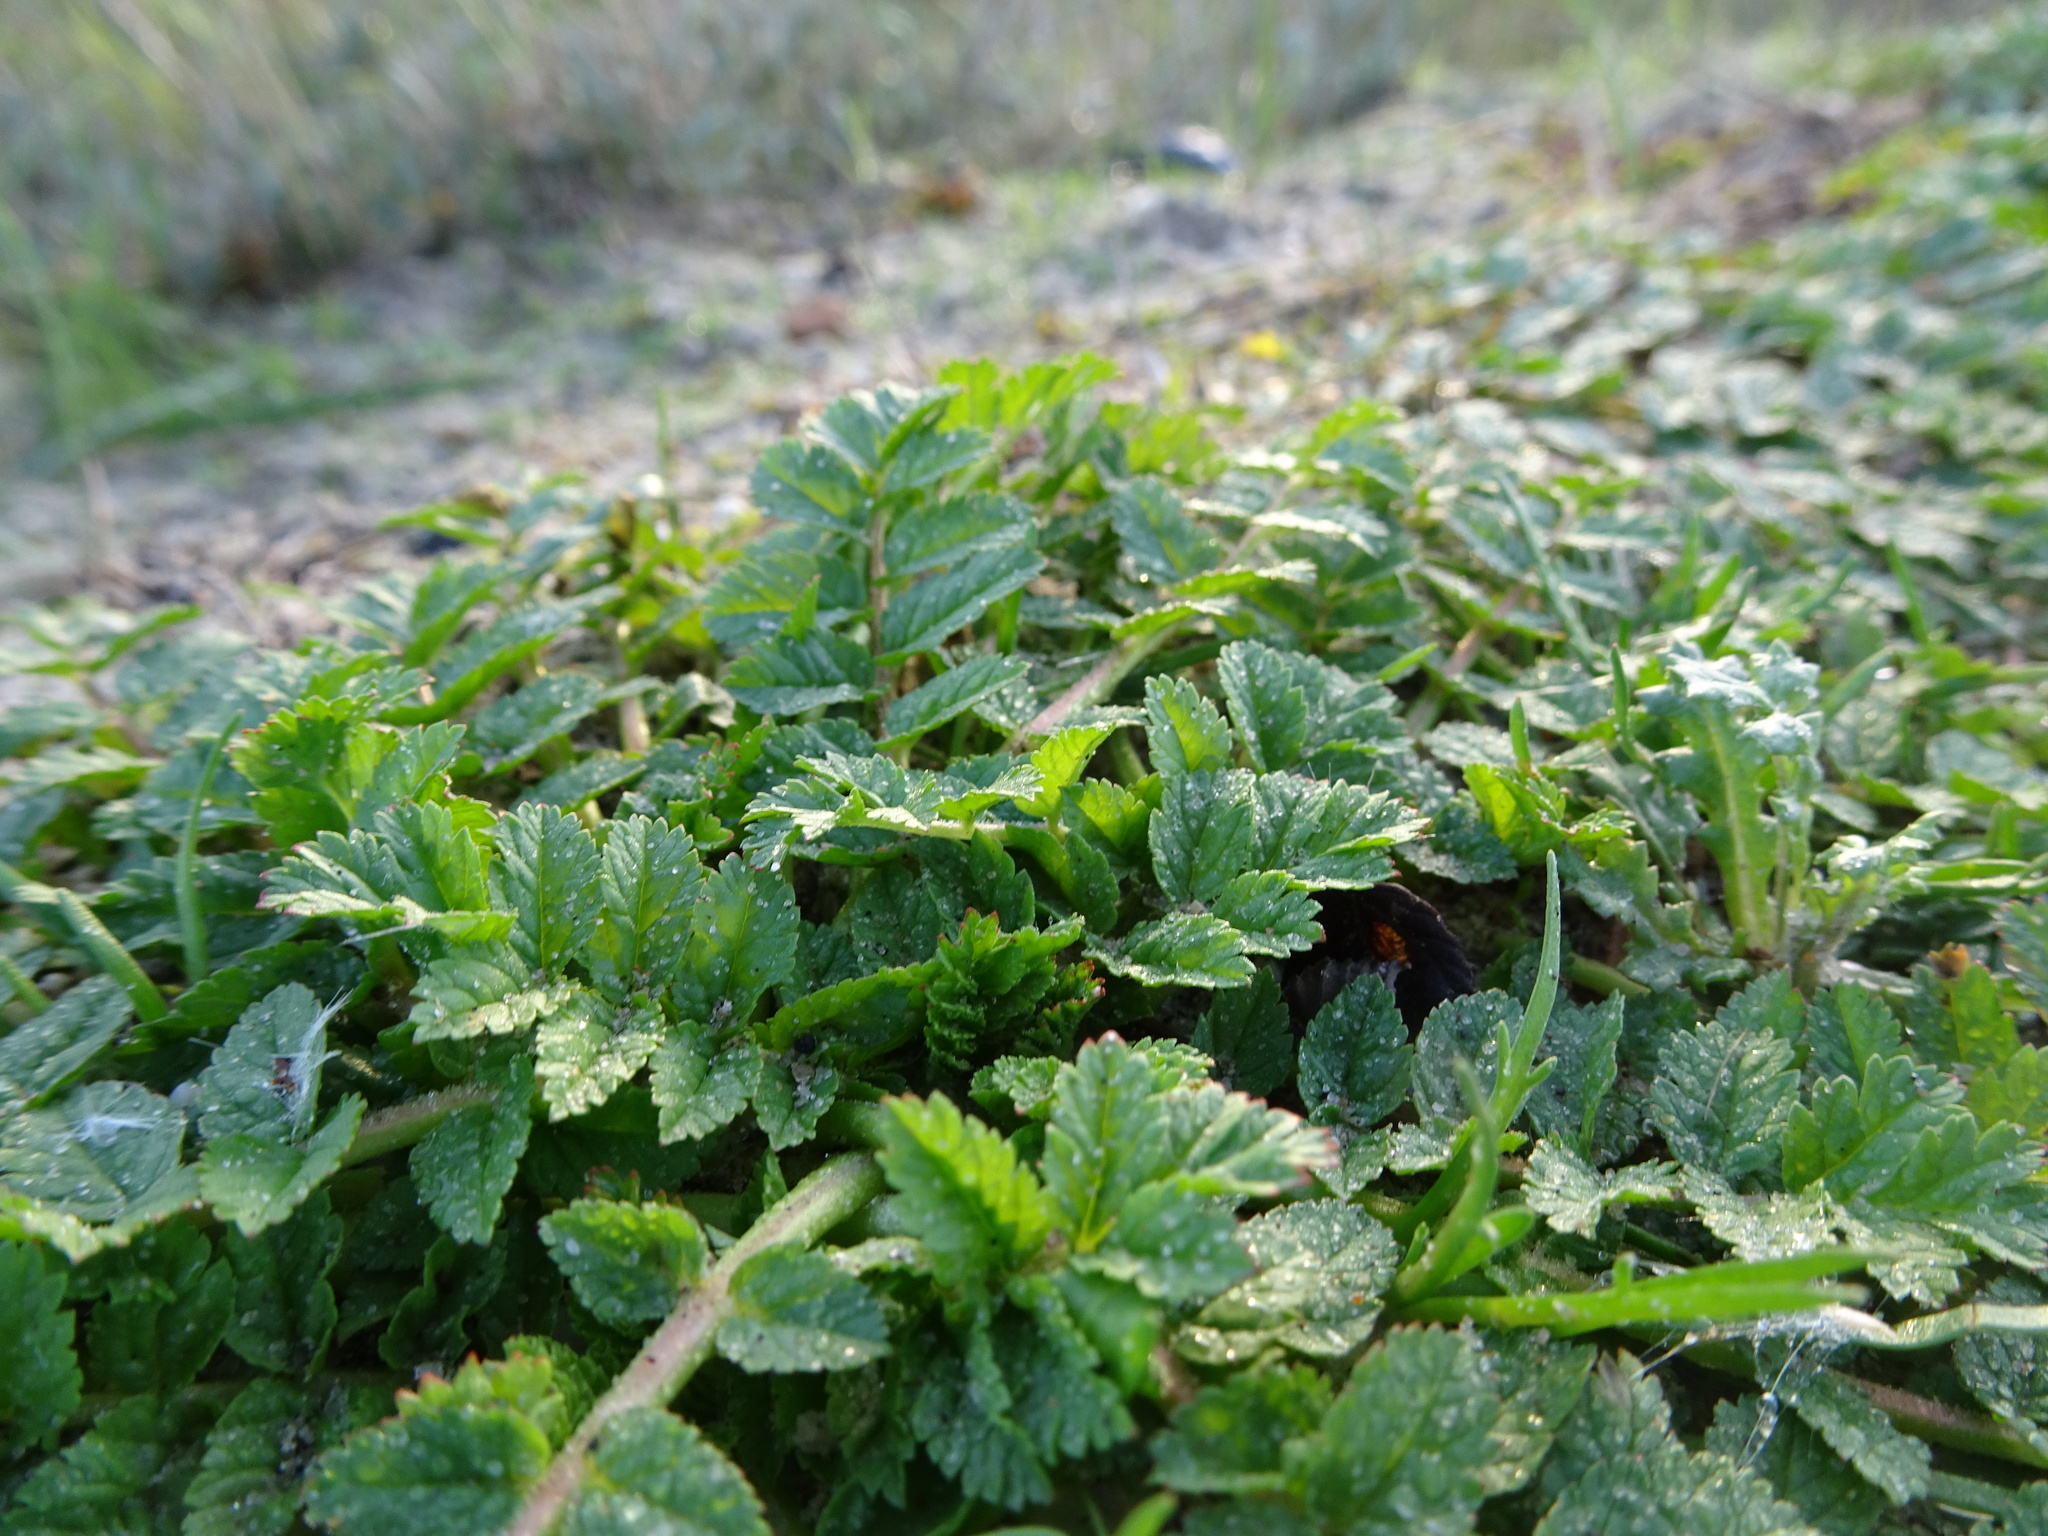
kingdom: Plantae
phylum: Tracheophyta
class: Magnoliopsida
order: Geraniales
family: Geraniaceae
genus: Erodium
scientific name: Erodium moschatum
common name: Musk stork's-bill
